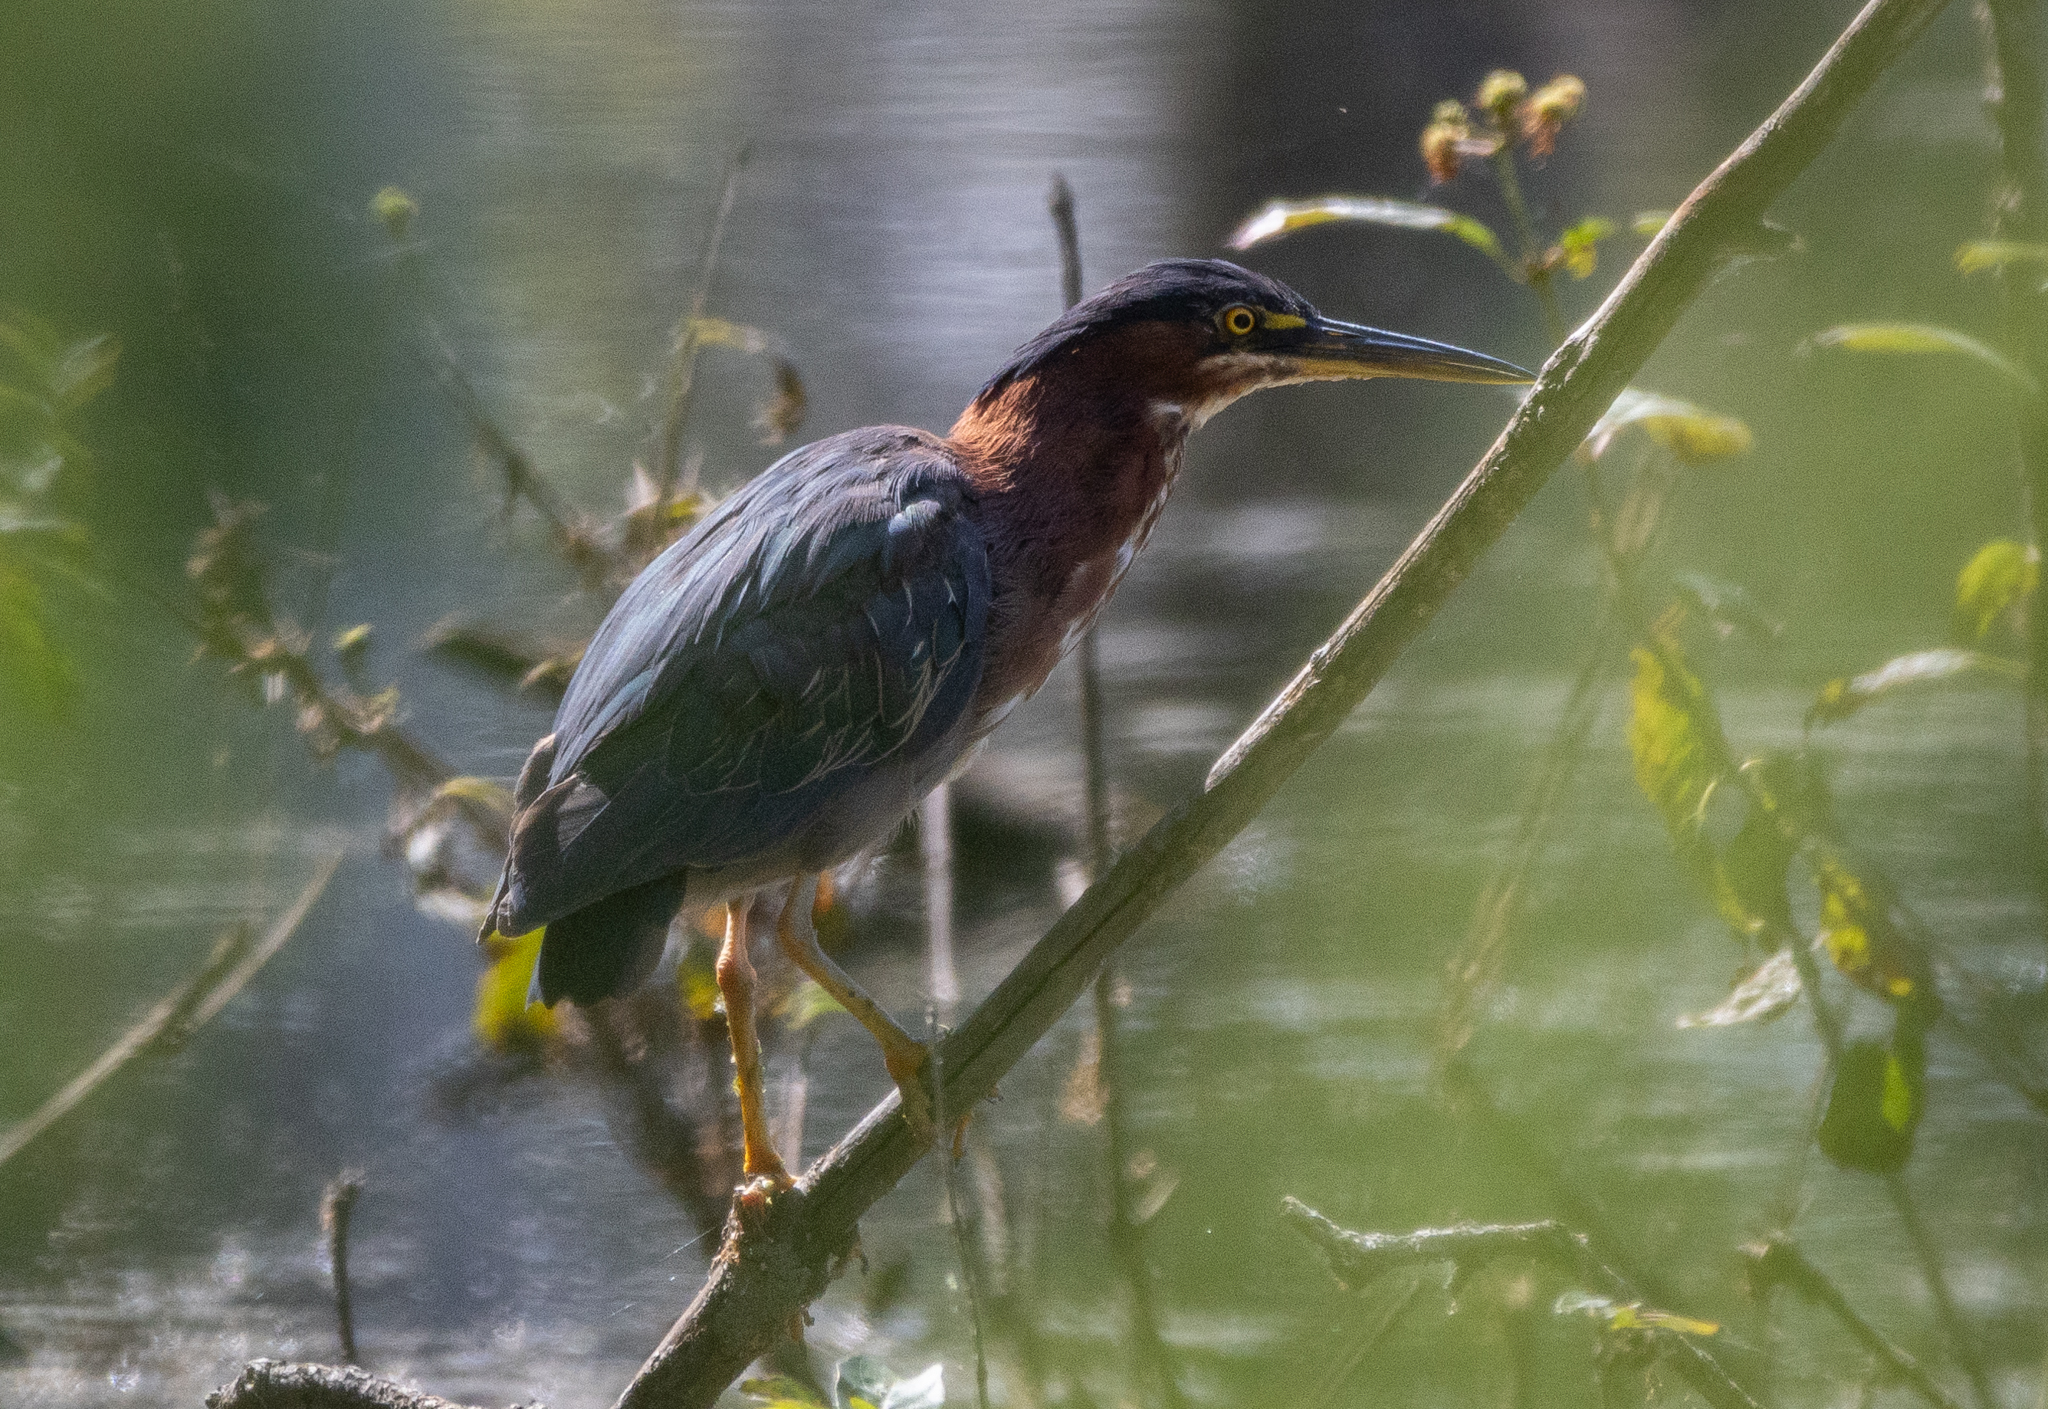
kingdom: Animalia
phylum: Chordata
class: Aves
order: Pelecaniformes
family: Ardeidae
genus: Butorides
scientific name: Butorides virescens
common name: Green heron
